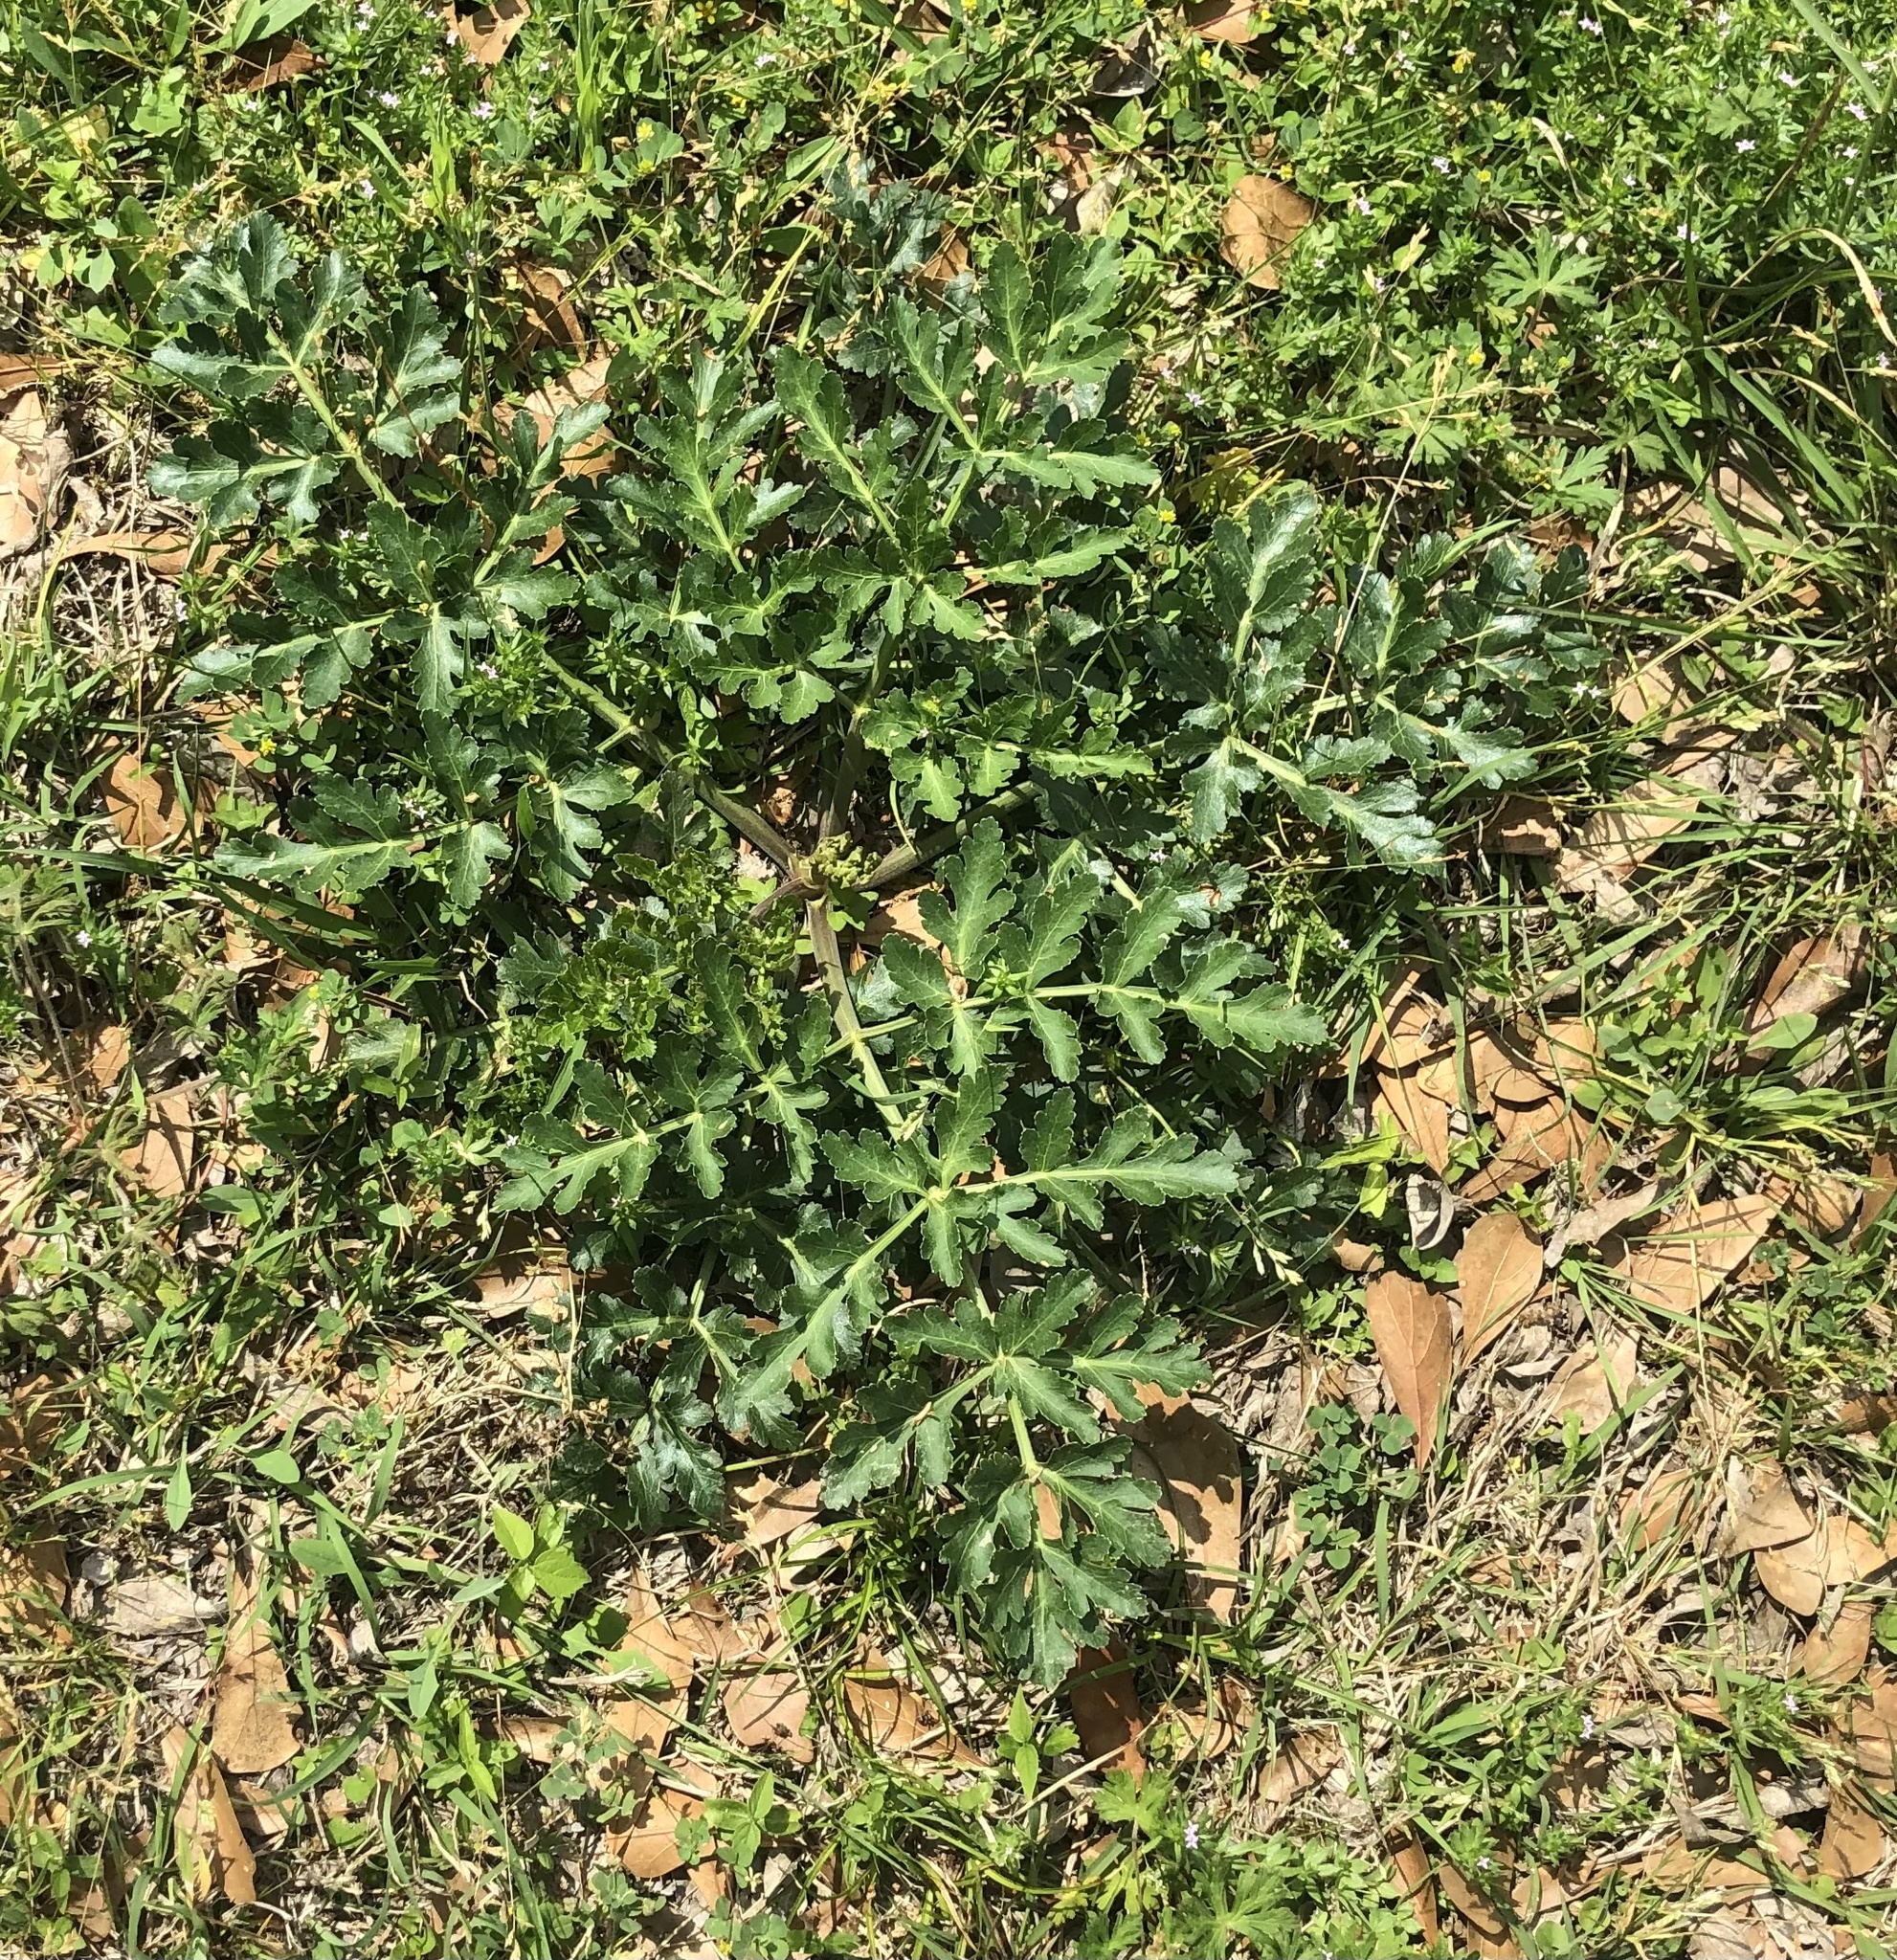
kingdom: Plantae
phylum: Tracheophyta
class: Magnoliopsida
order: Apiales
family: Apiaceae
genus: Polytaenia
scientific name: Polytaenia texana
